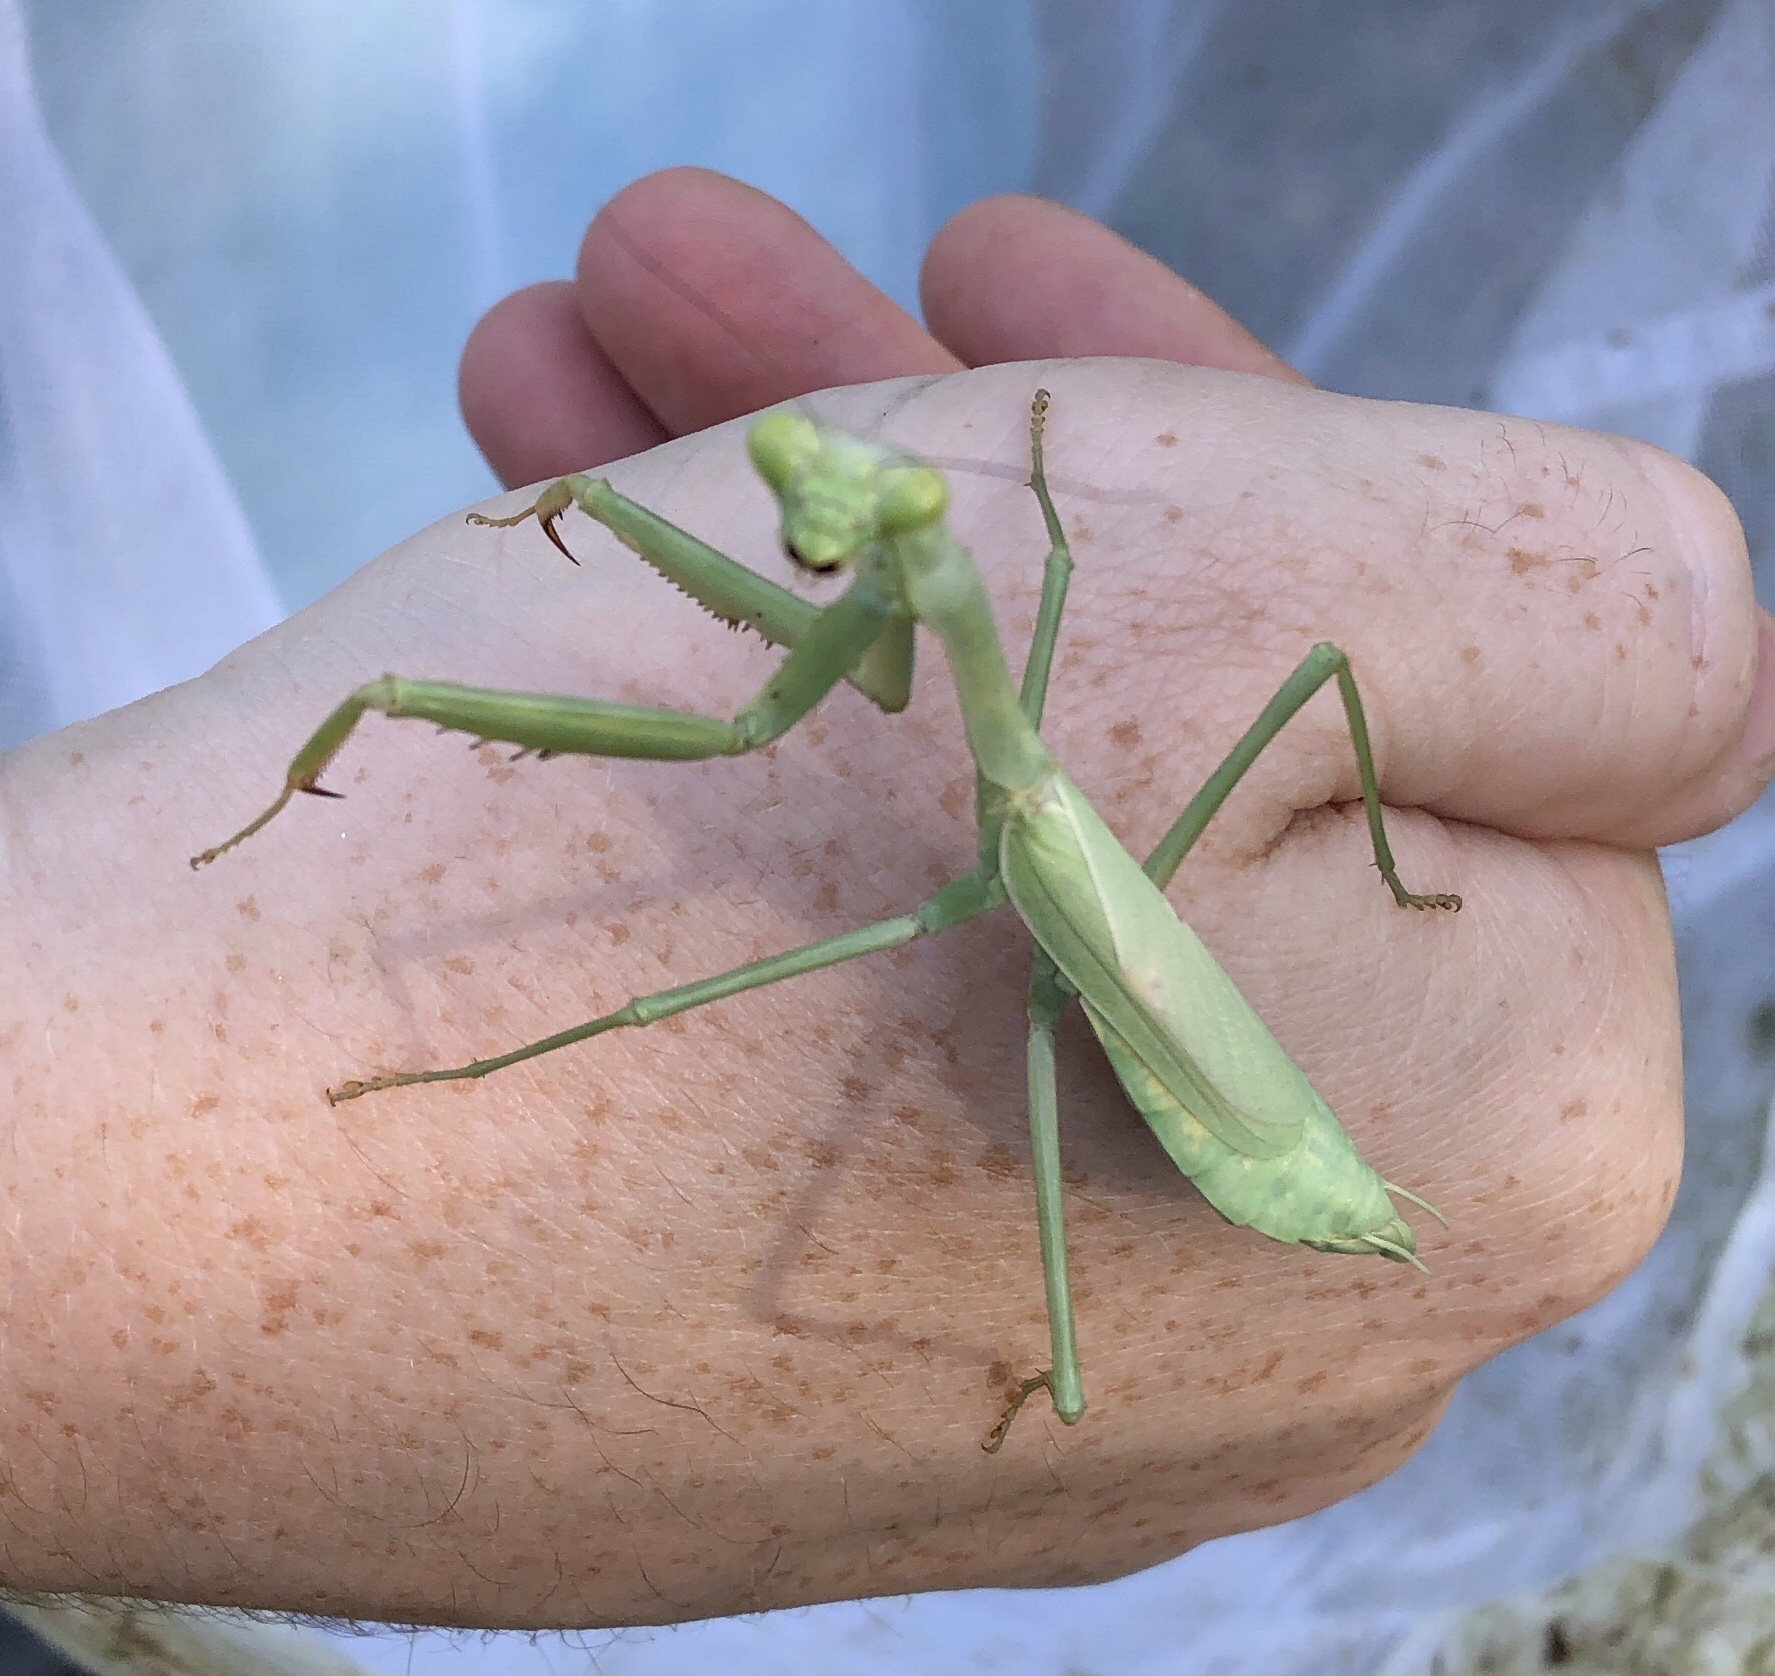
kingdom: Animalia
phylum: Arthropoda
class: Insecta
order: Mantodea
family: Mantidae
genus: Stagmomantis
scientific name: Stagmomantis carolina
